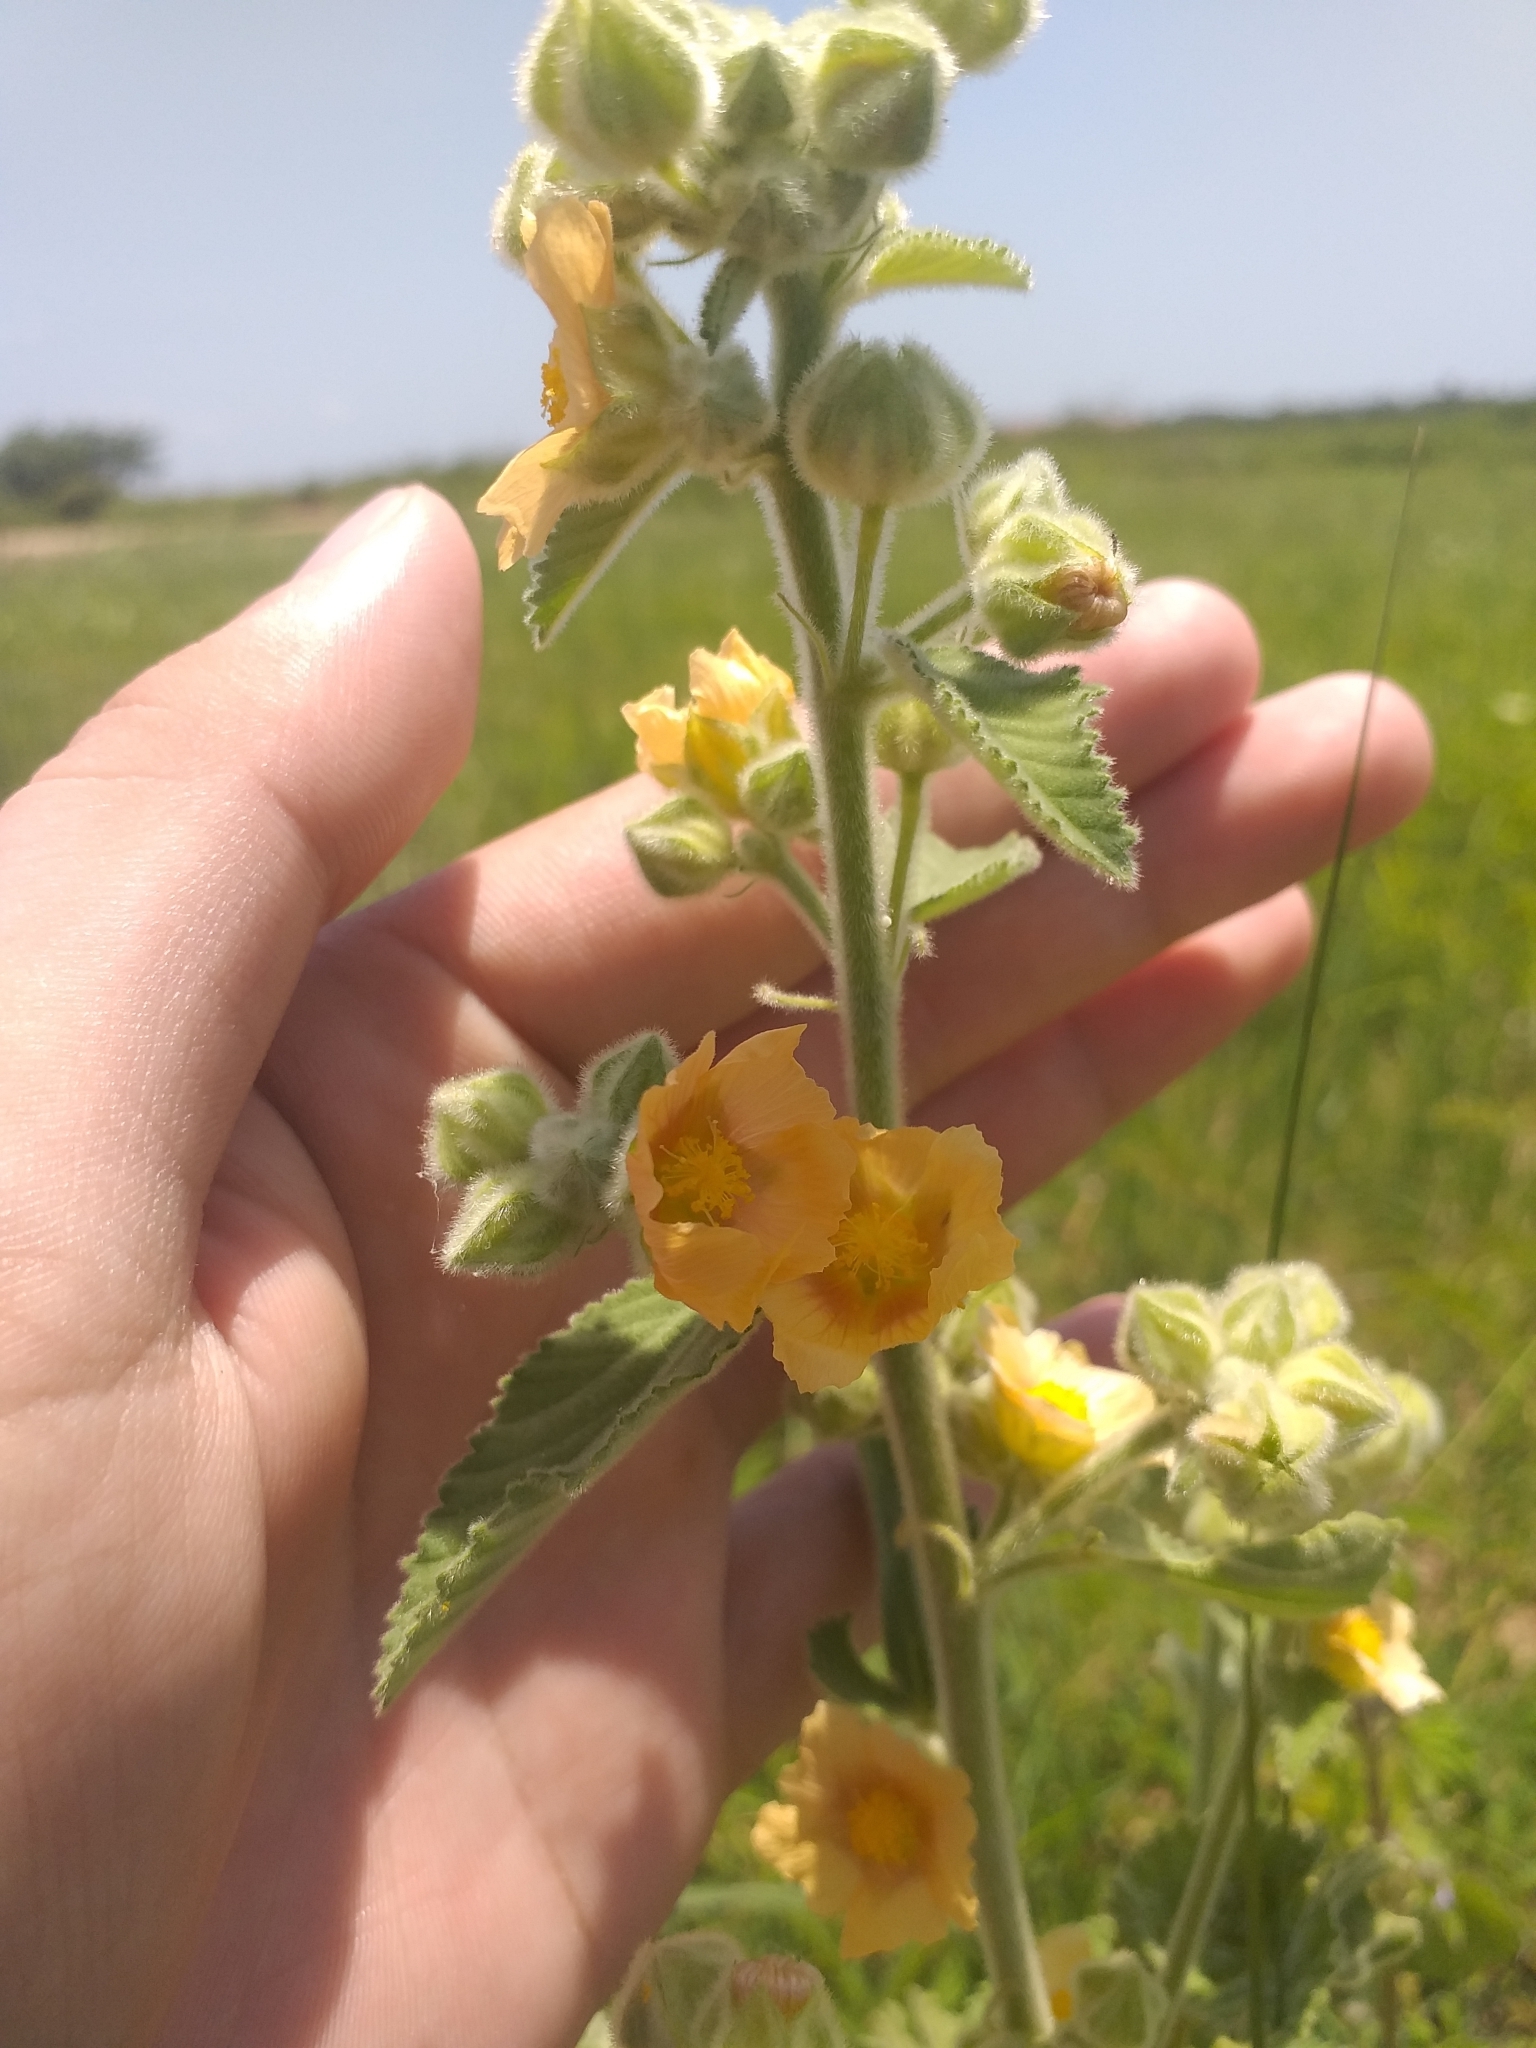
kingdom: Plantae
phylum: Tracheophyta
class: Magnoliopsida
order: Malvales
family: Malvaceae
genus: Sida
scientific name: Sida cordifolia
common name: Ilima
